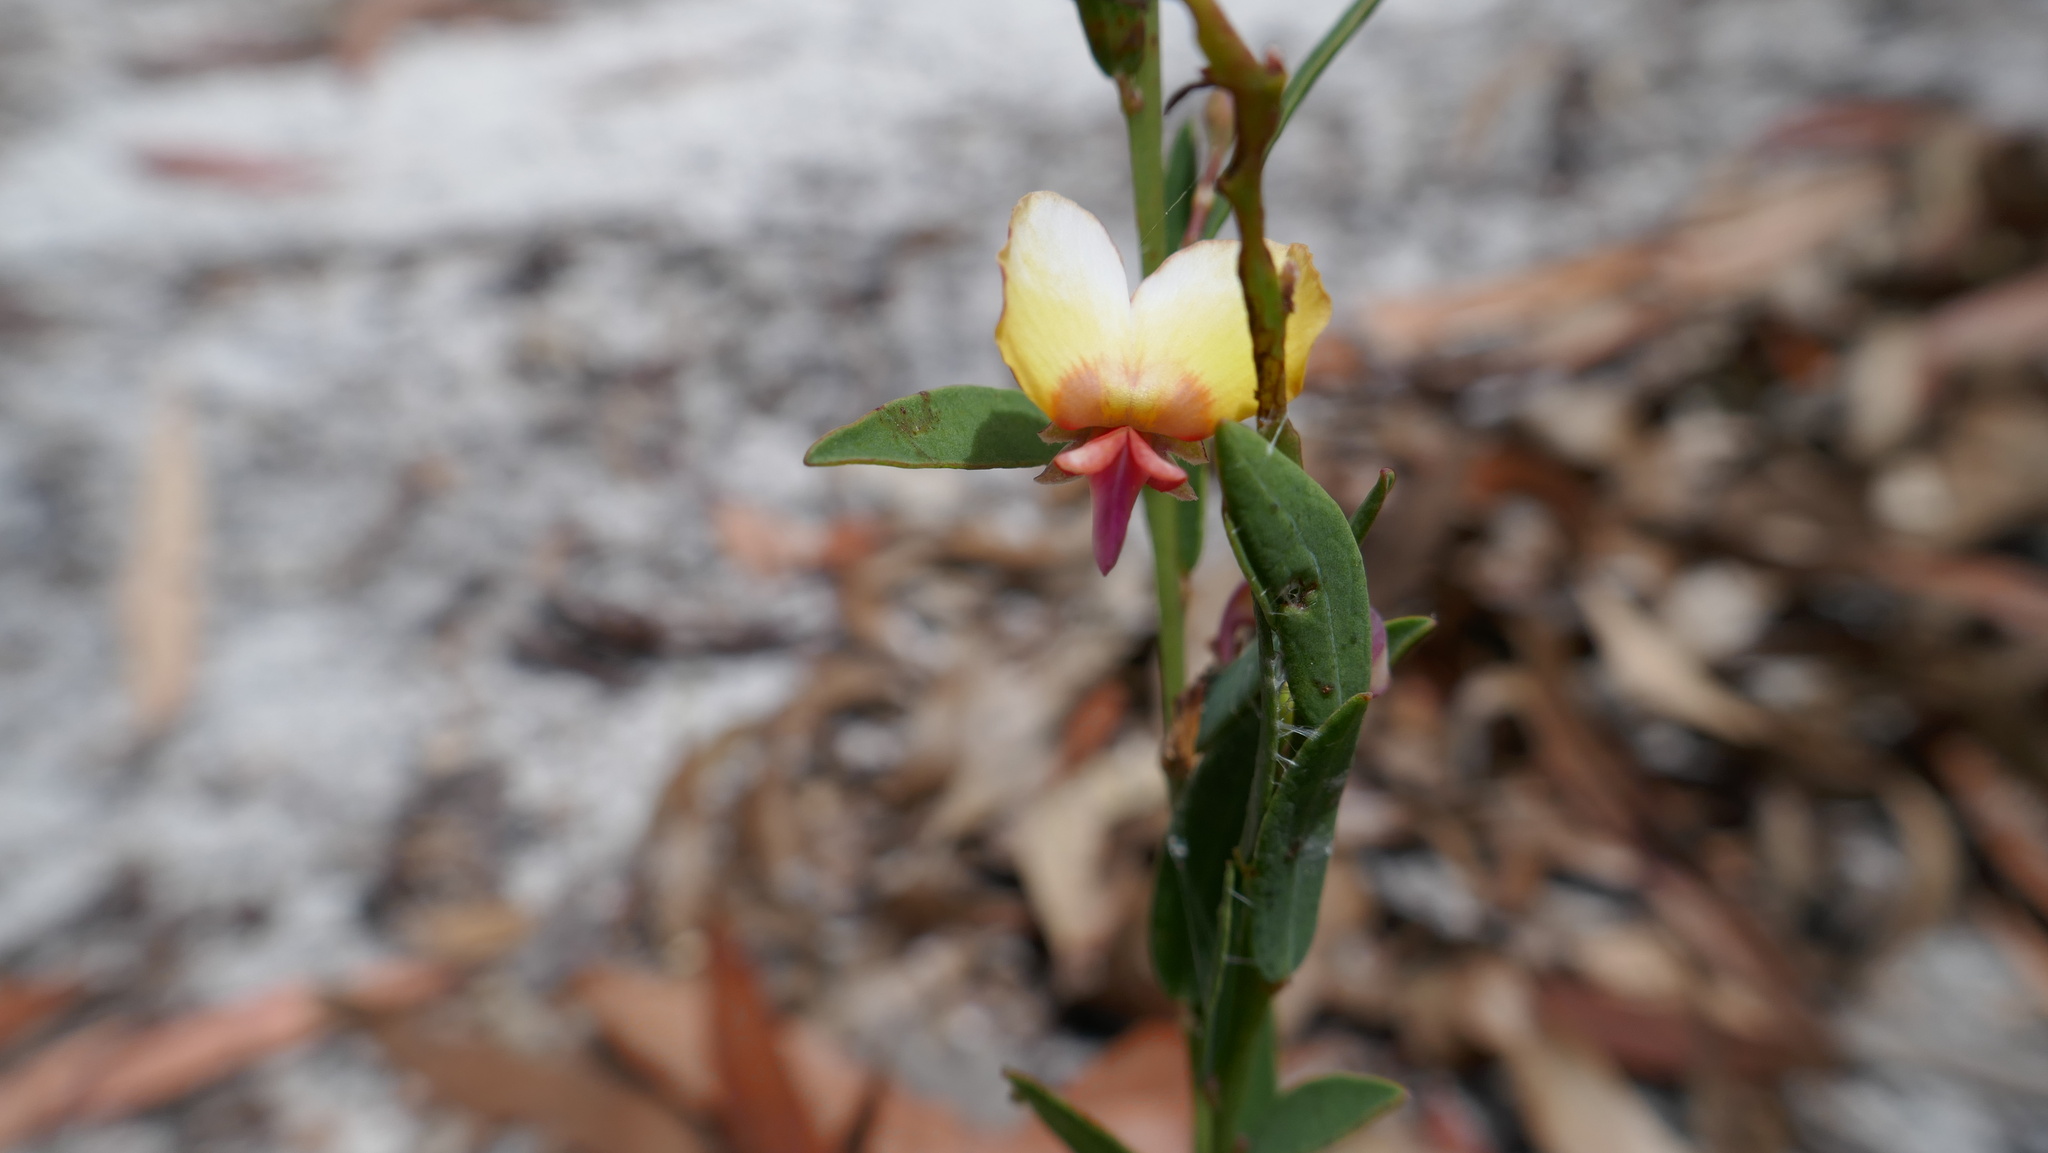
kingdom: Plantae
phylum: Tracheophyta
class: Magnoliopsida
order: Fabales
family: Fabaceae
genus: Bossiaea
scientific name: Bossiaea heterophylla
